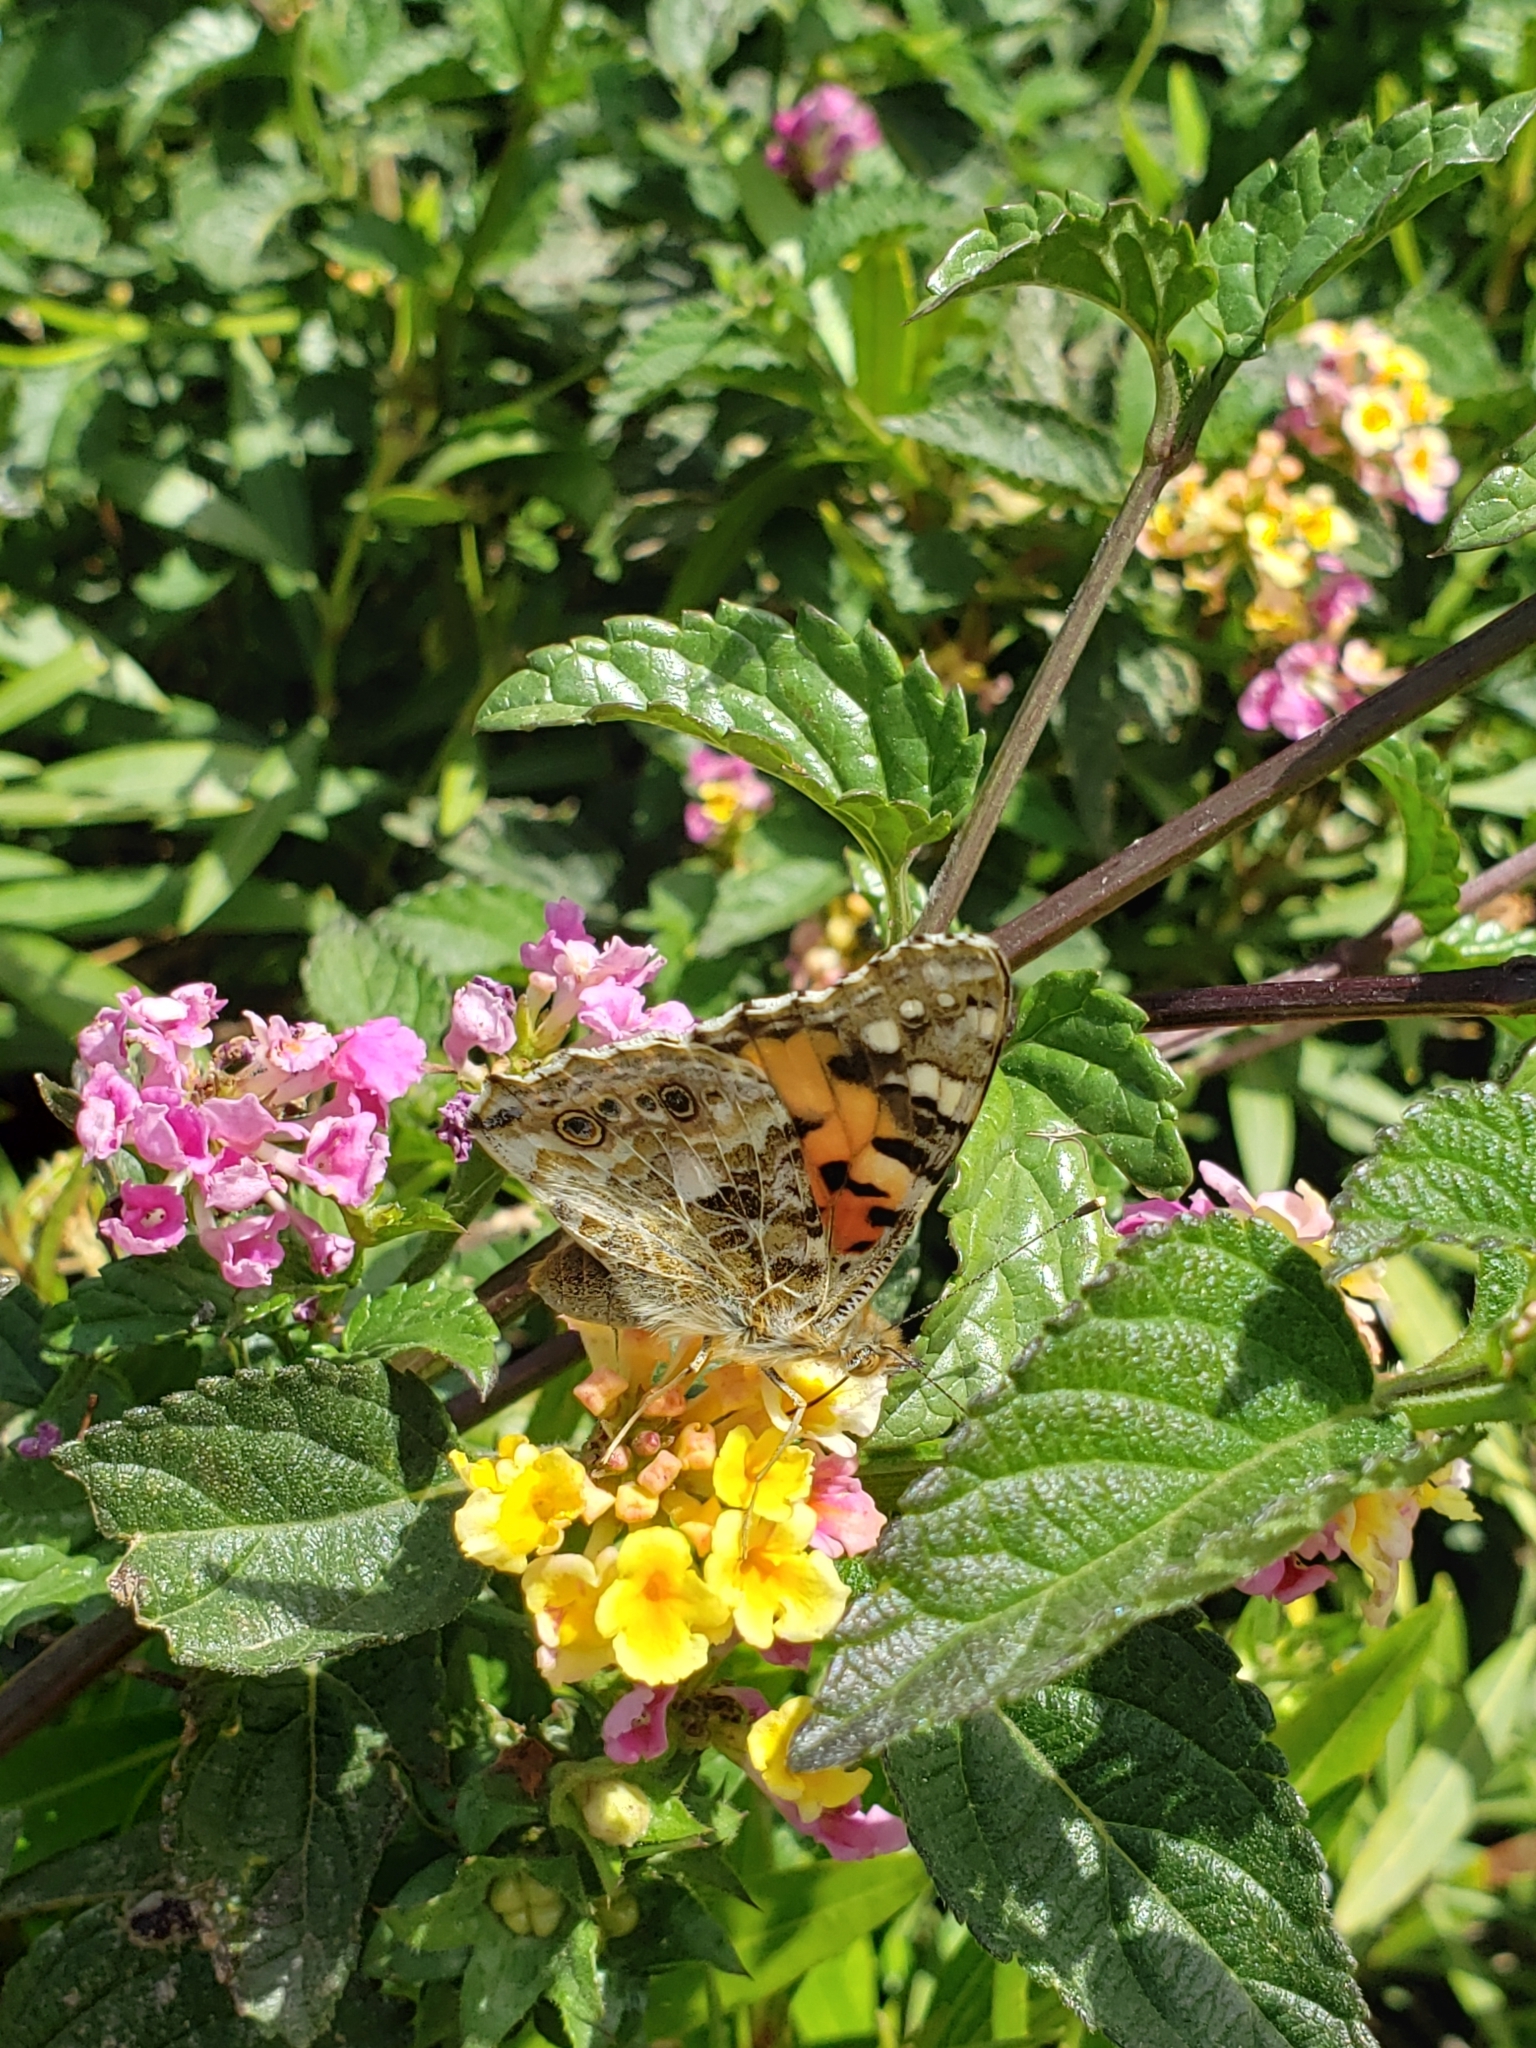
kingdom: Animalia
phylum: Arthropoda
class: Insecta
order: Lepidoptera
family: Nymphalidae
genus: Vanessa
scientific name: Vanessa cardui
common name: Painted lady
